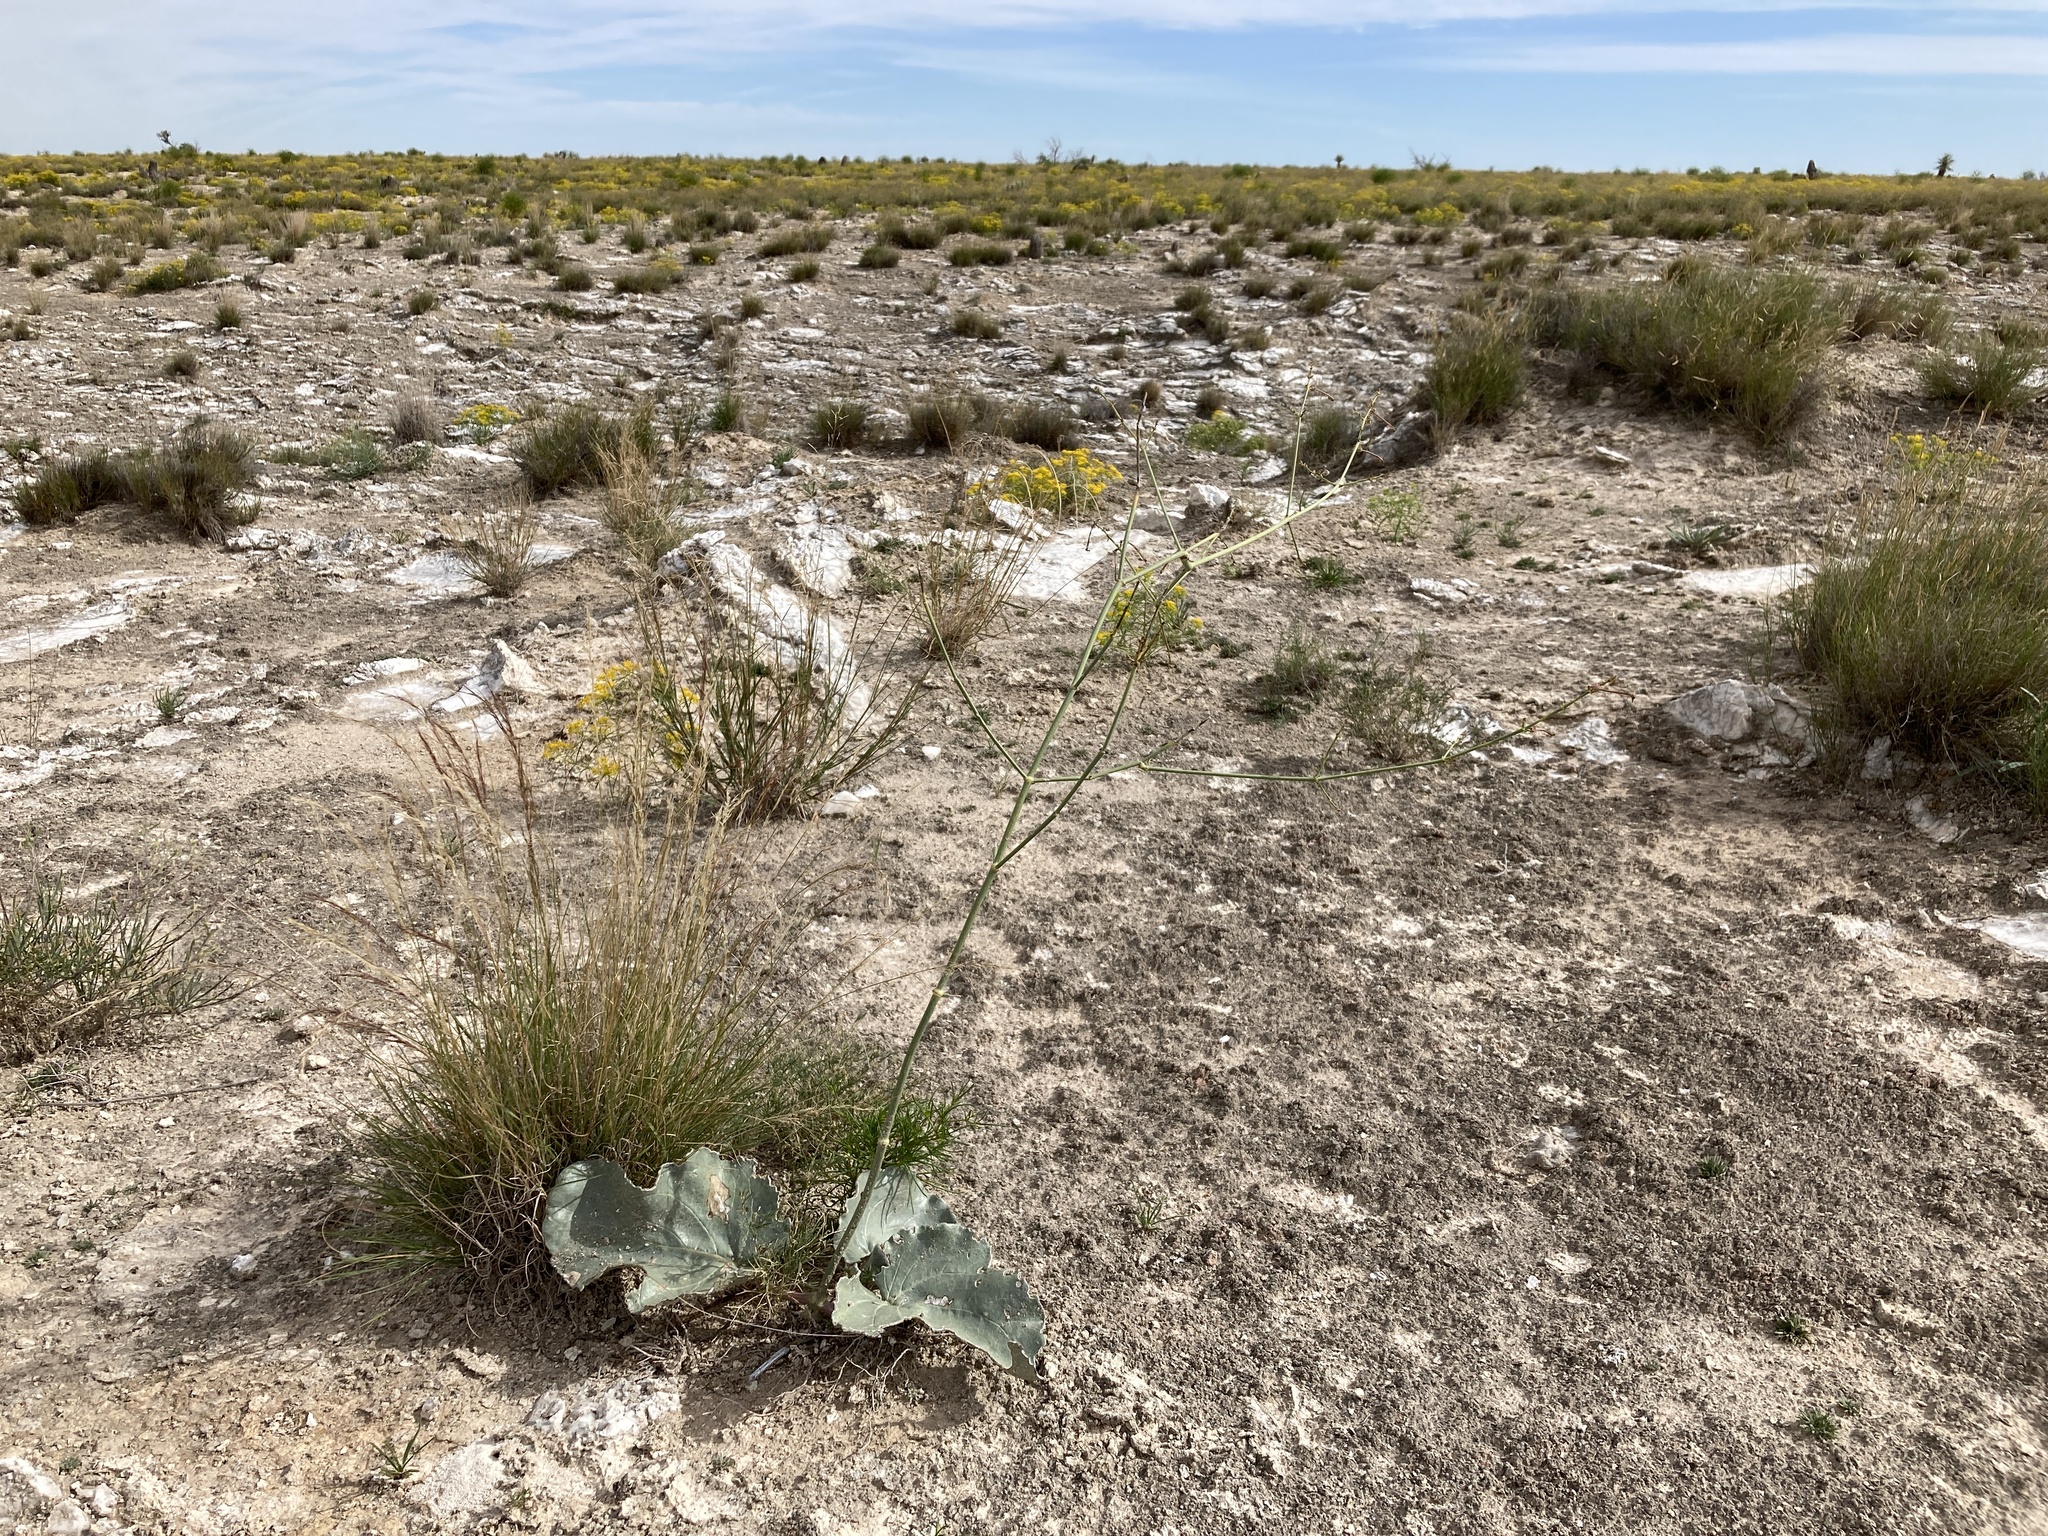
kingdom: Plantae
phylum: Tracheophyta
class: Magnoliopsida
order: Caryophyllales
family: Nyctaginaceae
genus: Anulocaulis
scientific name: Anulocaulis leiosolenus
